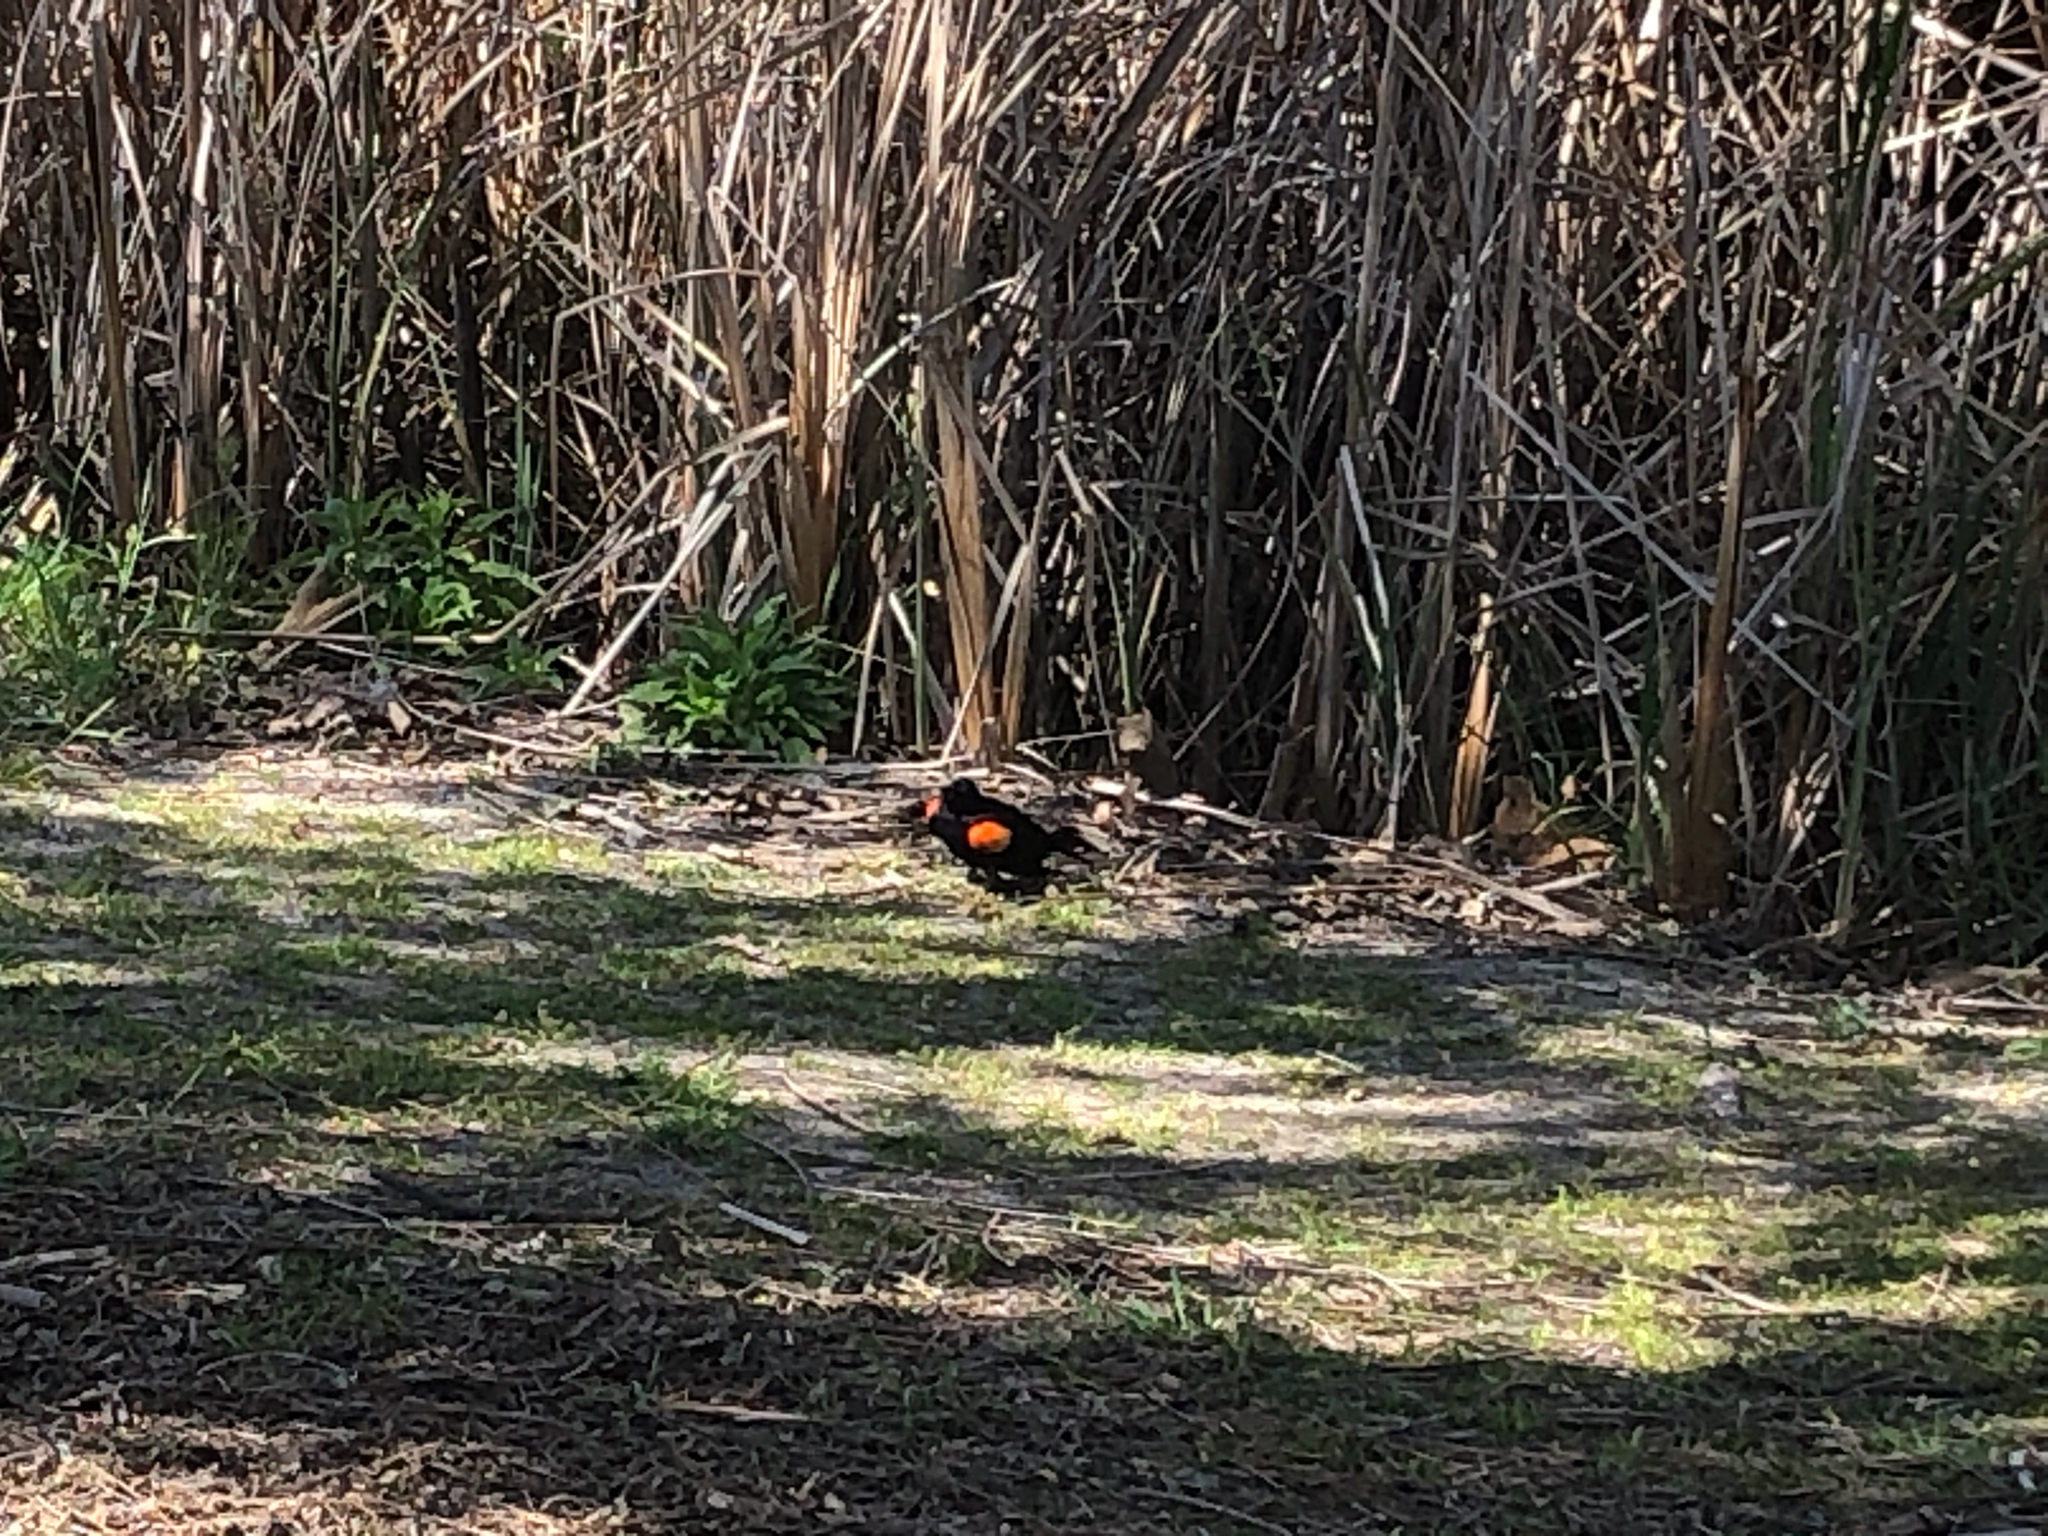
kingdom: Animalia
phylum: Chordata
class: Aves
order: Passeriformes
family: Icteridae
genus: Agelaius
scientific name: Agelaius phoeniceus
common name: Red-winged blackbird
